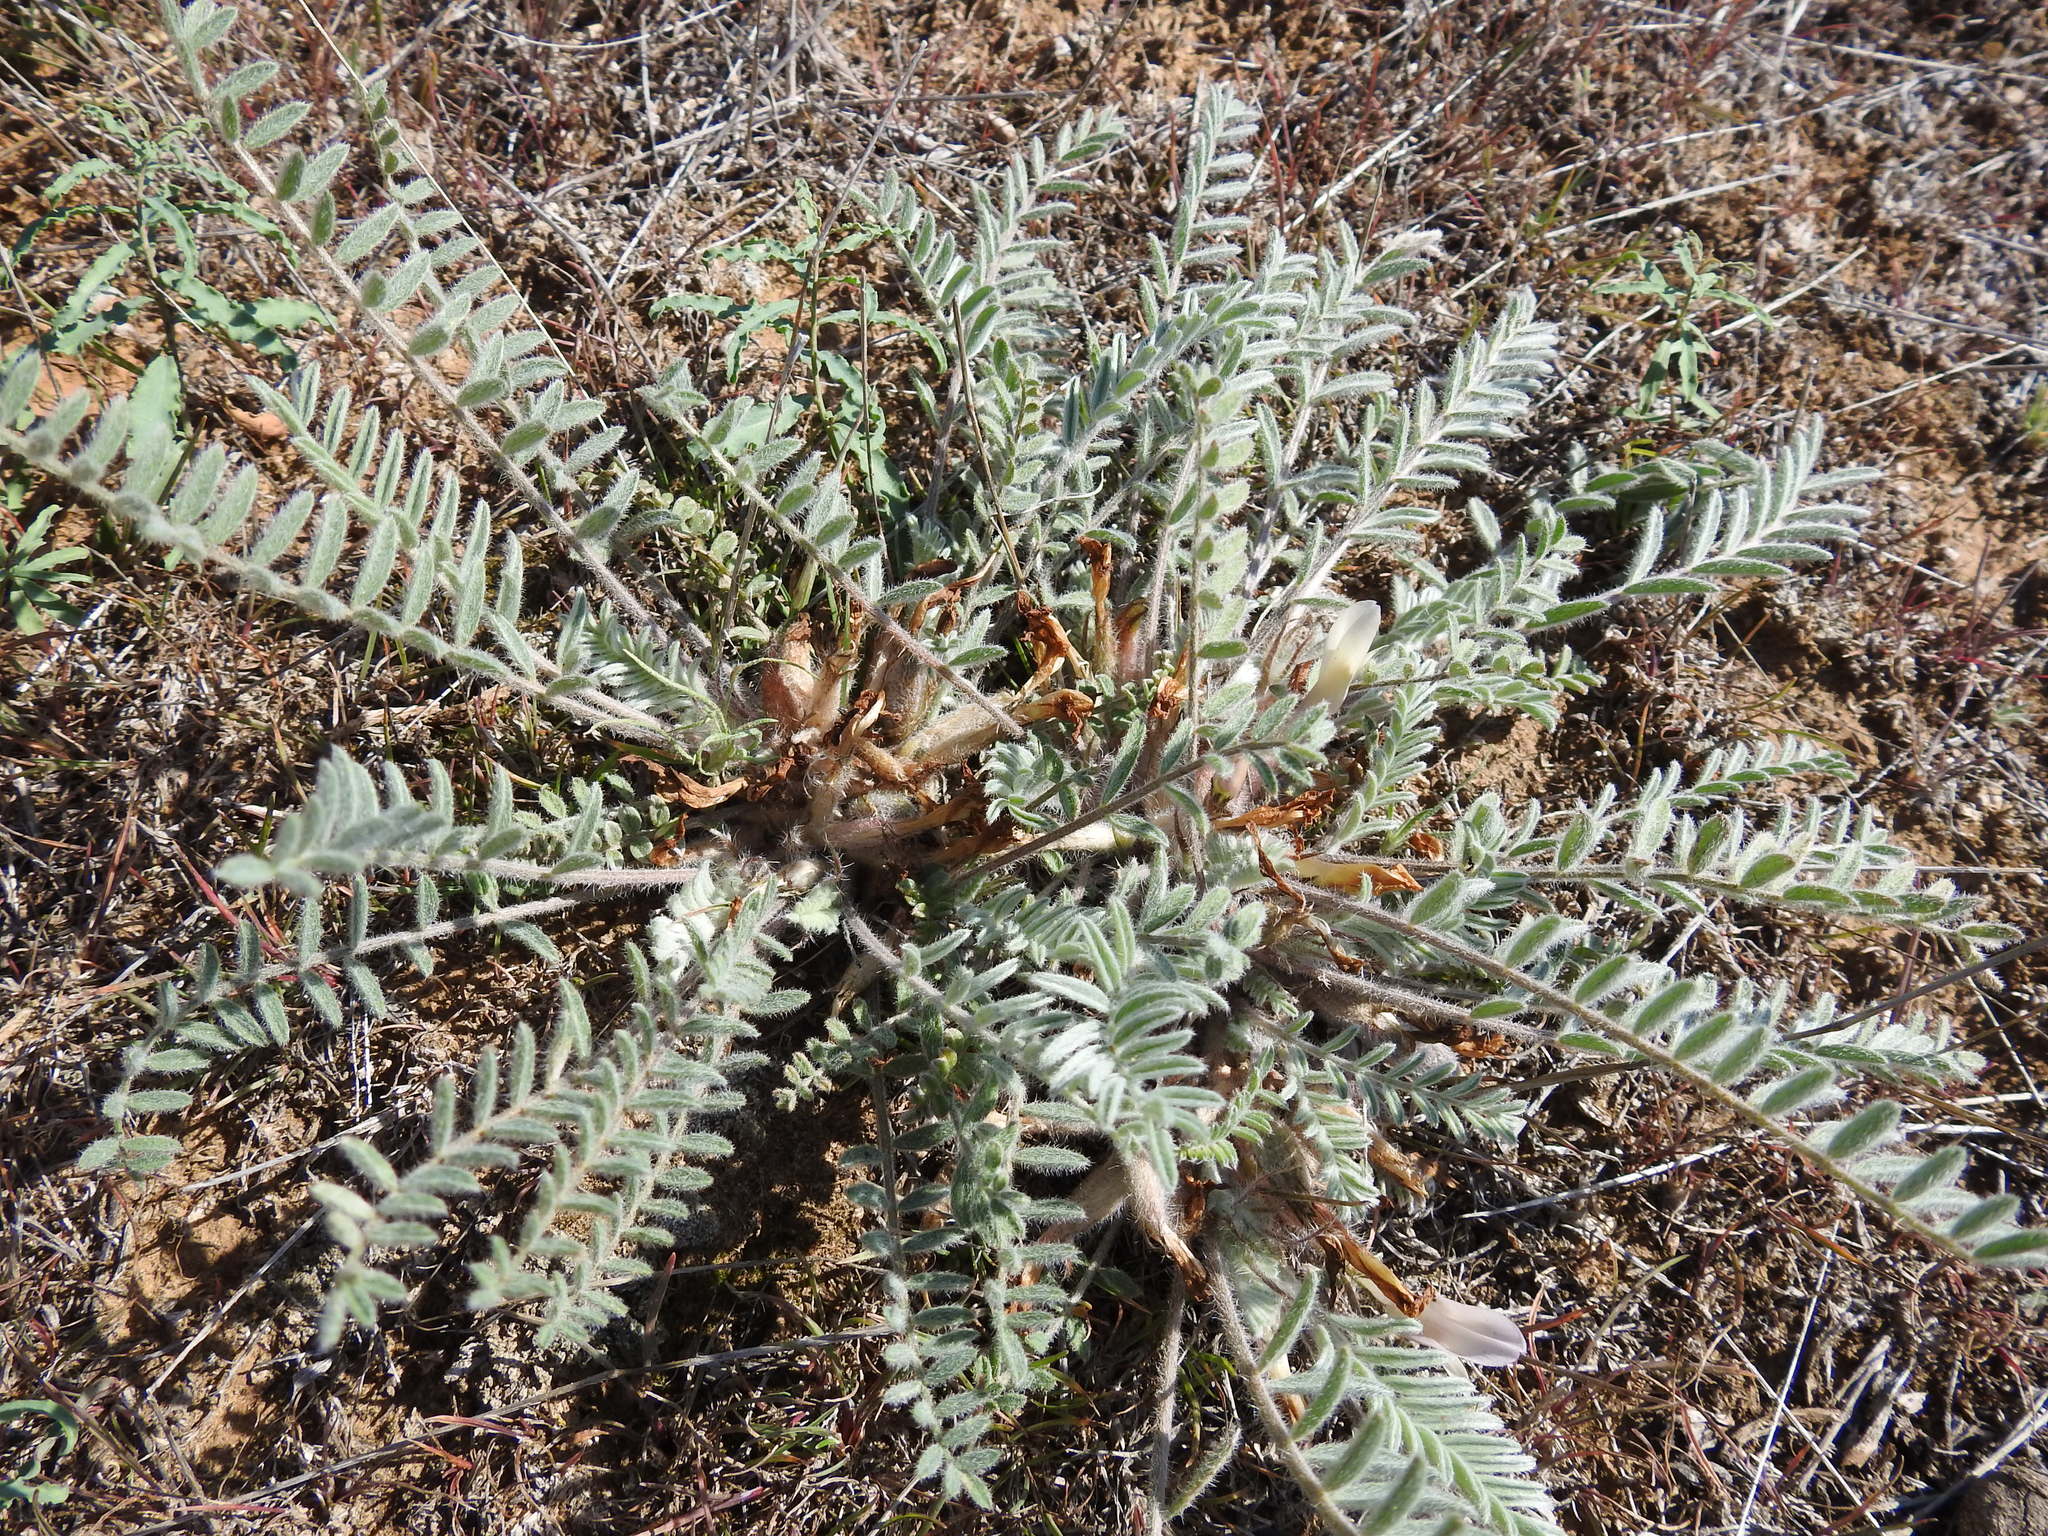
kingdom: Plantae
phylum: Tracheophyta
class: Magnoliopsida
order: Fabales
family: Fabaceae
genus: Astragalus
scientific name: Astragalus testiculatus
